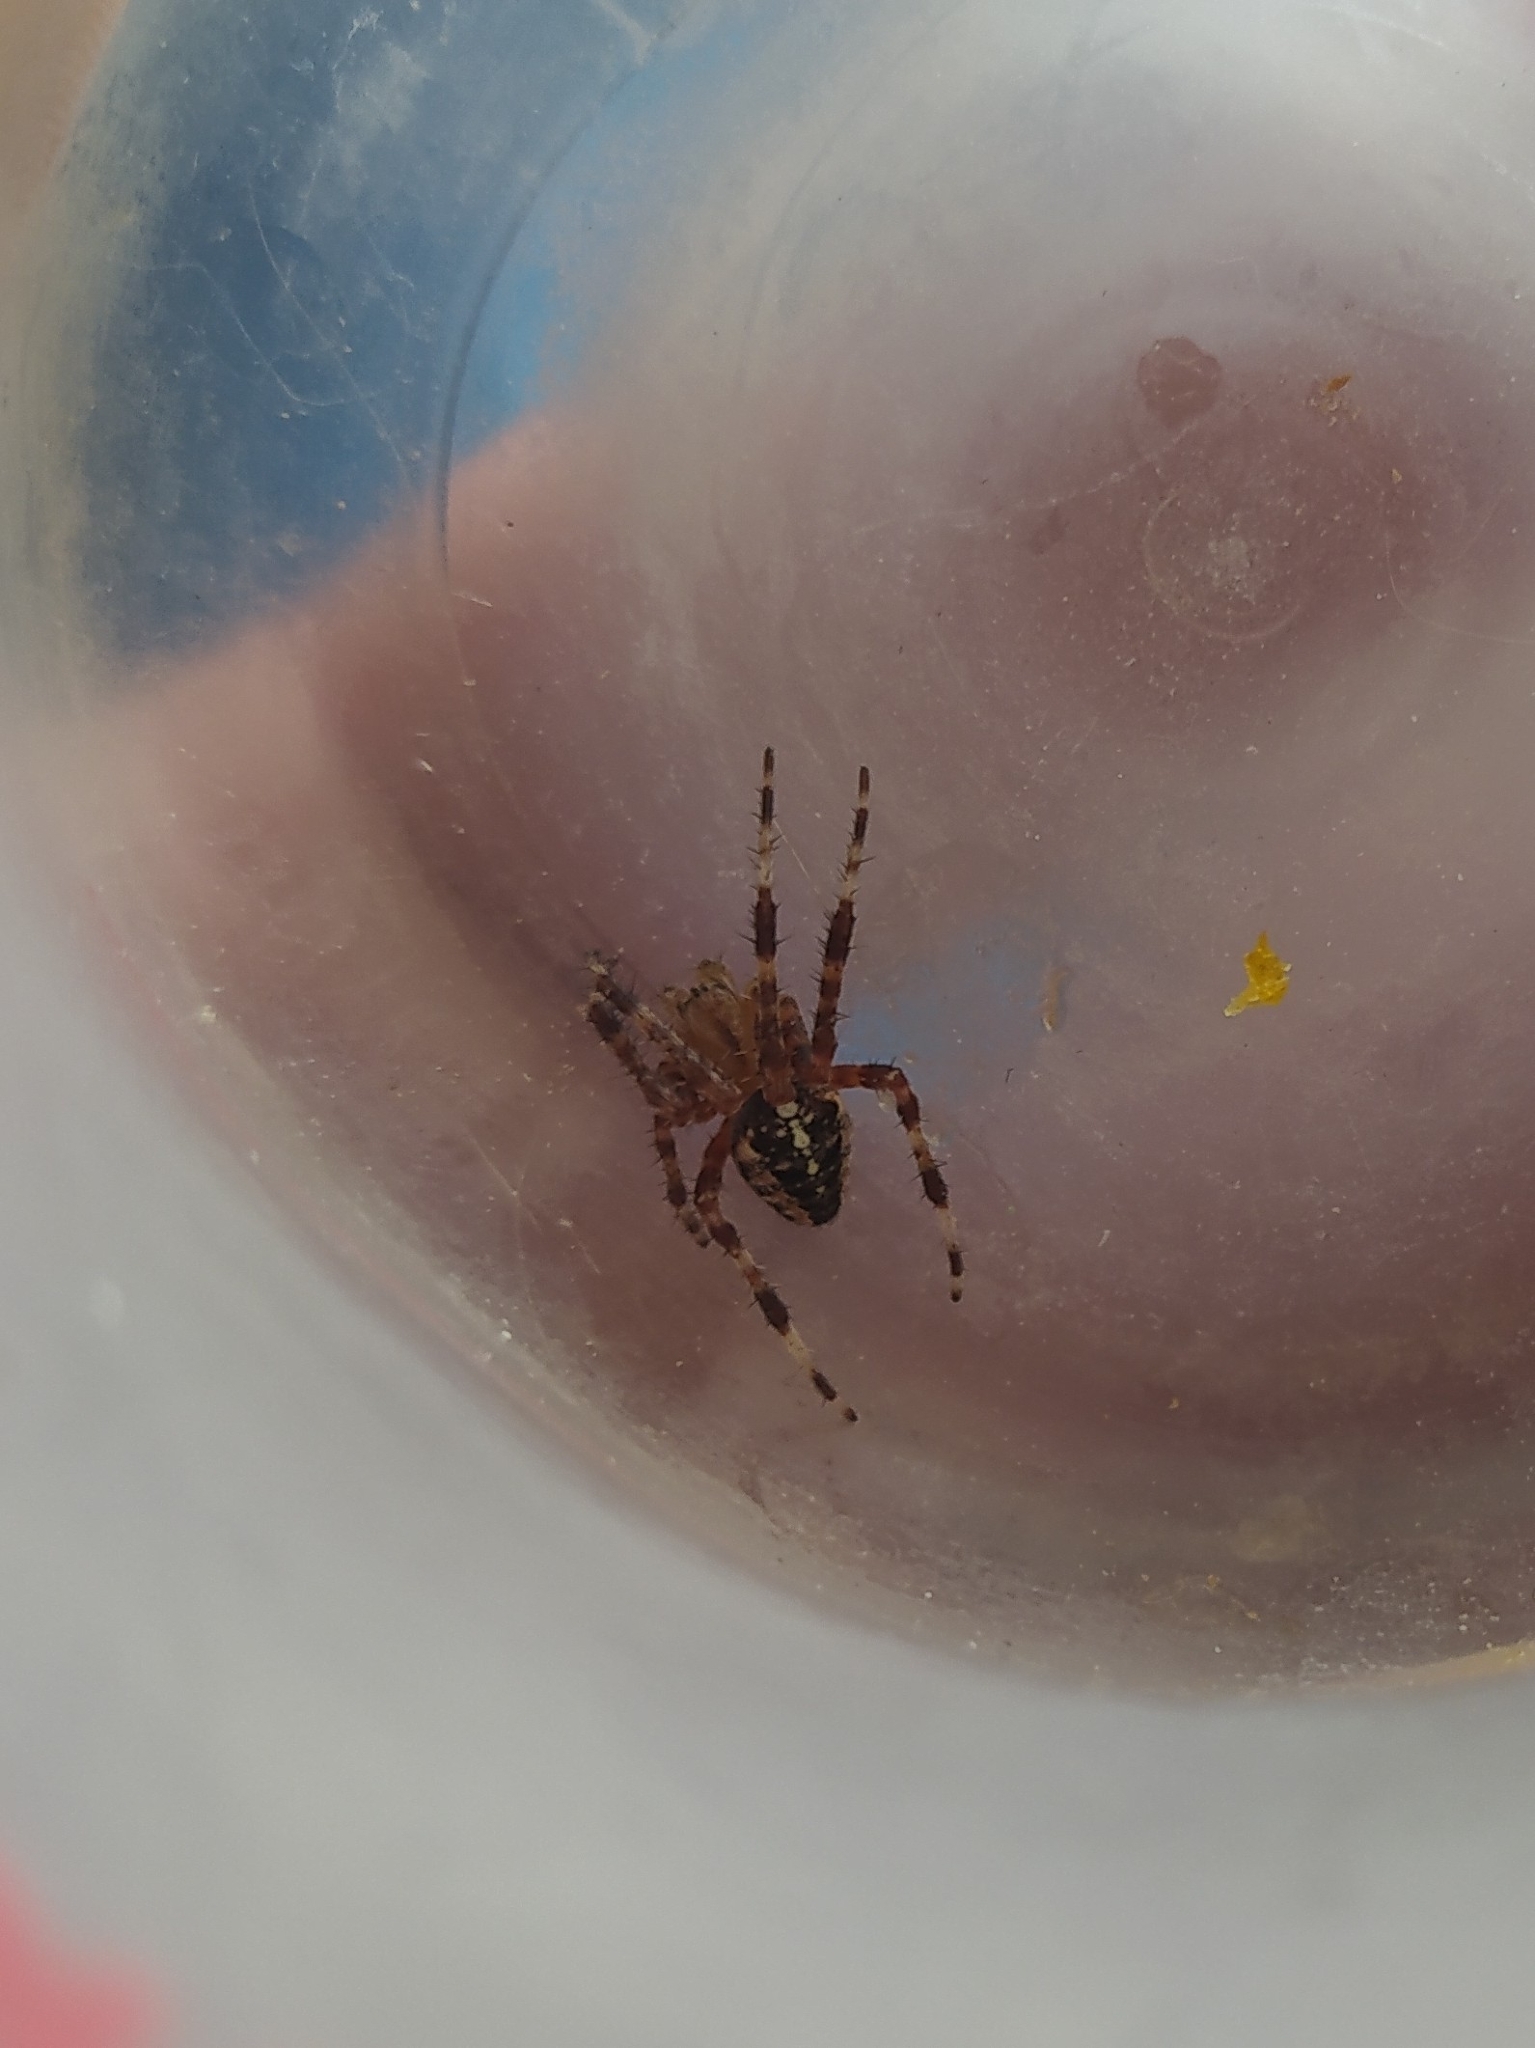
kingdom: Animalia
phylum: Arthropoda
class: Arachnida
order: Araneae
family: Araneidae
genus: Araneus
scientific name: Araneus diadematus
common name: Cross orbweaver
